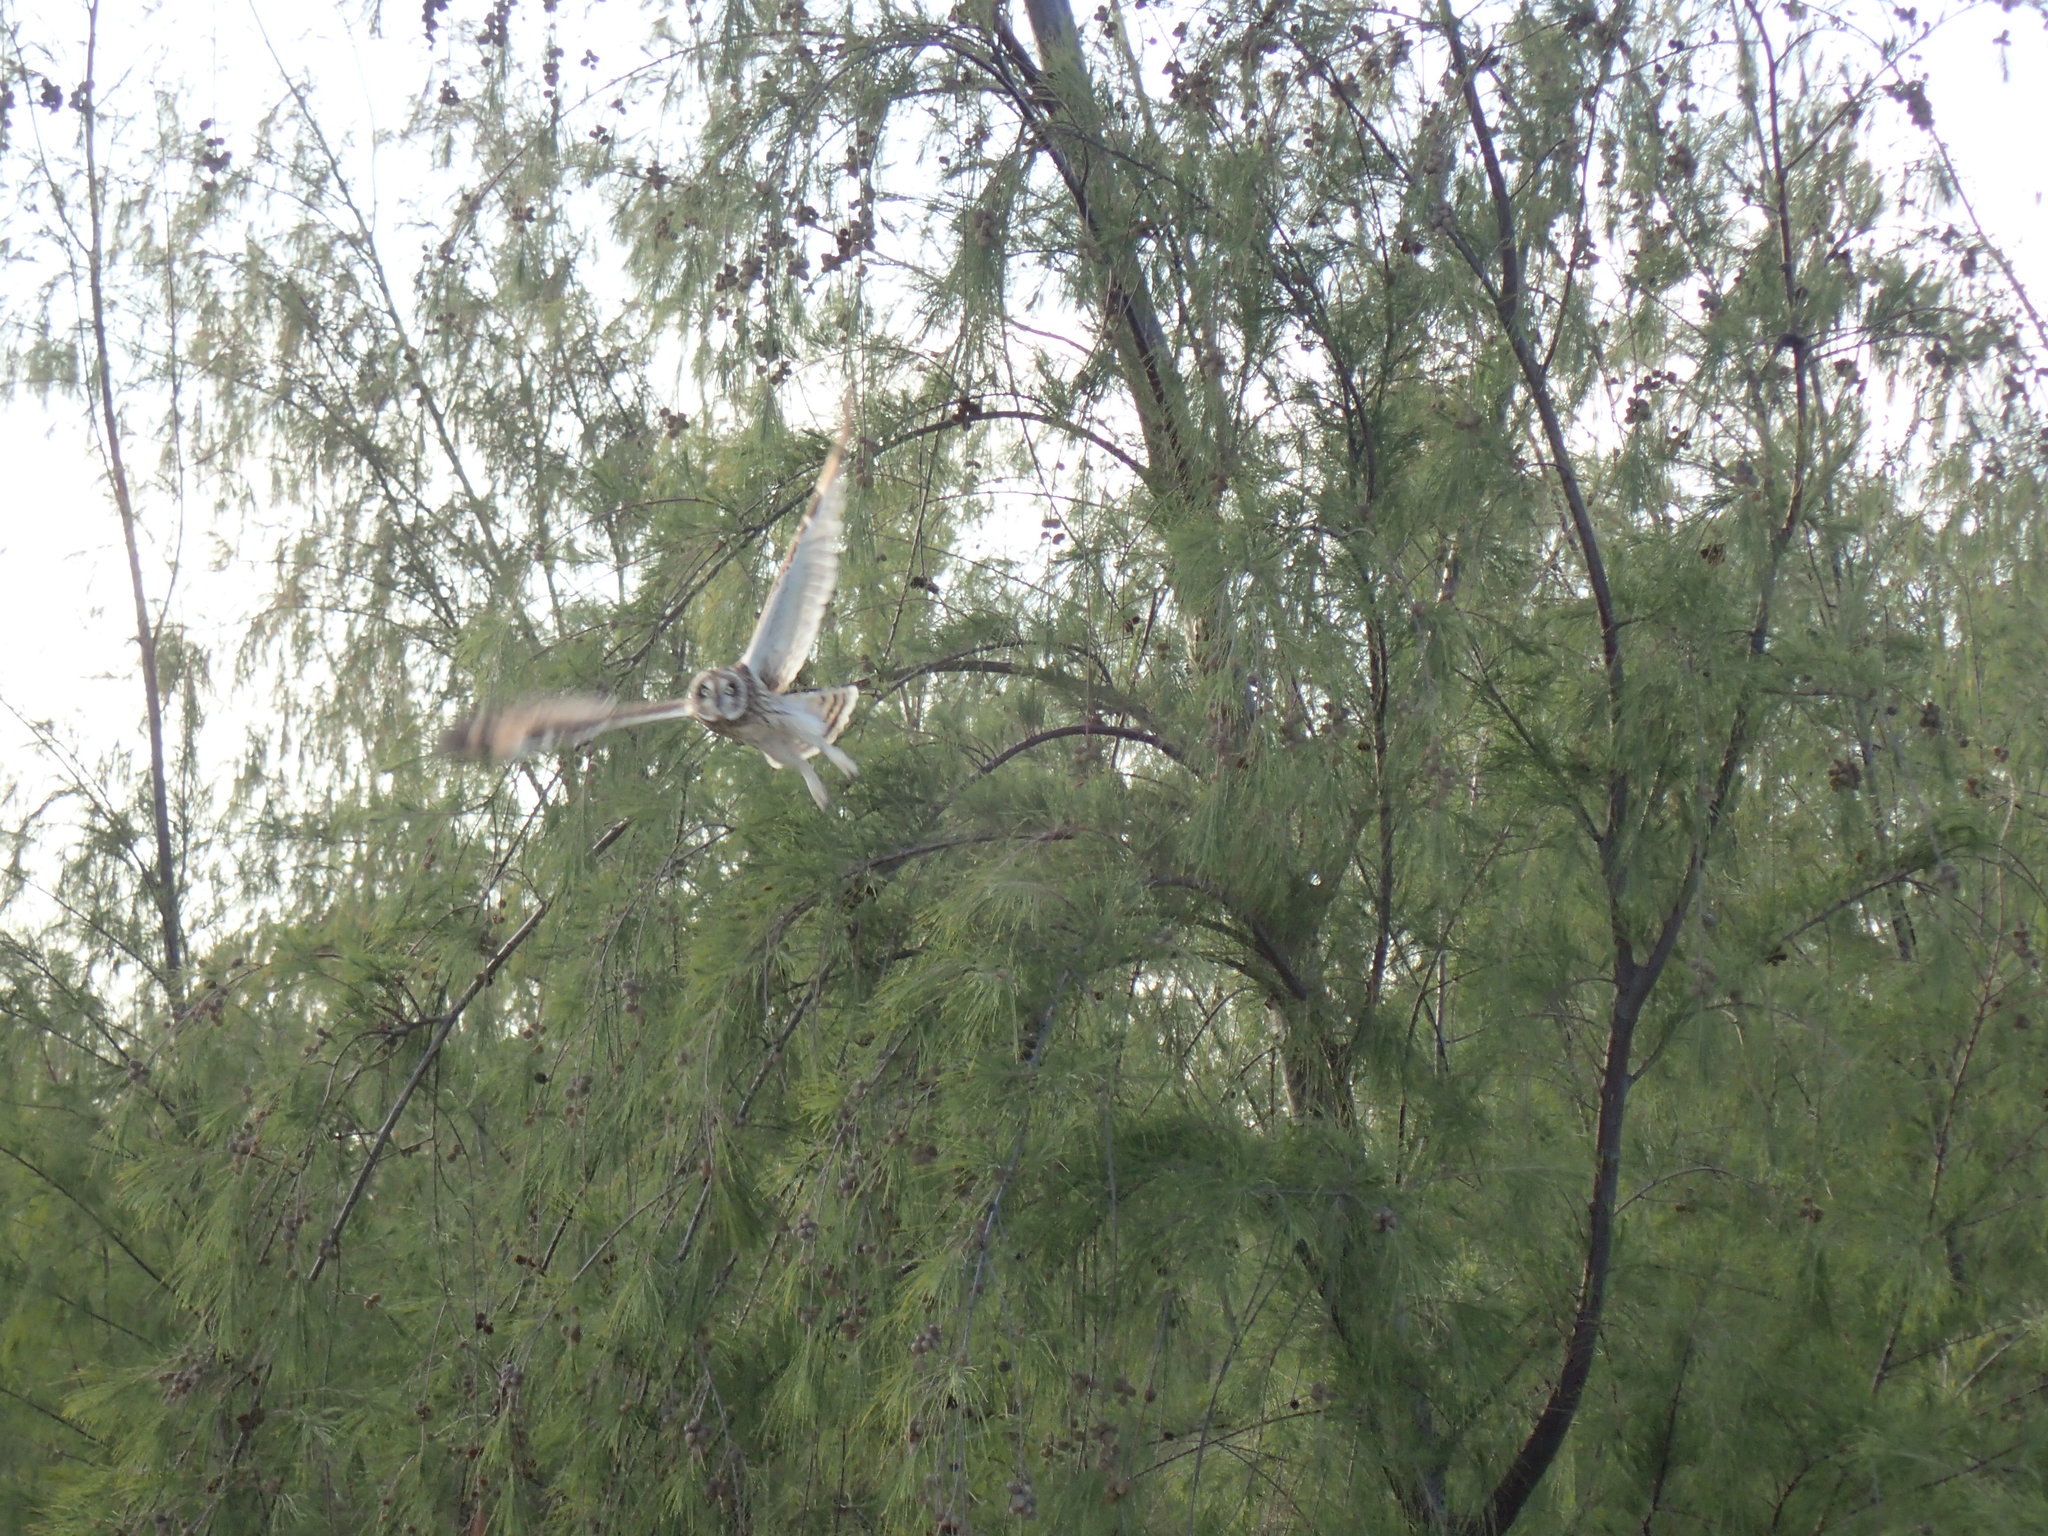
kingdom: Animalia
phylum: Chordata
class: Aves
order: Strigiformes
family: Strigidae
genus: Asio
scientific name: Asio flammeus
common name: Short-eared owl
